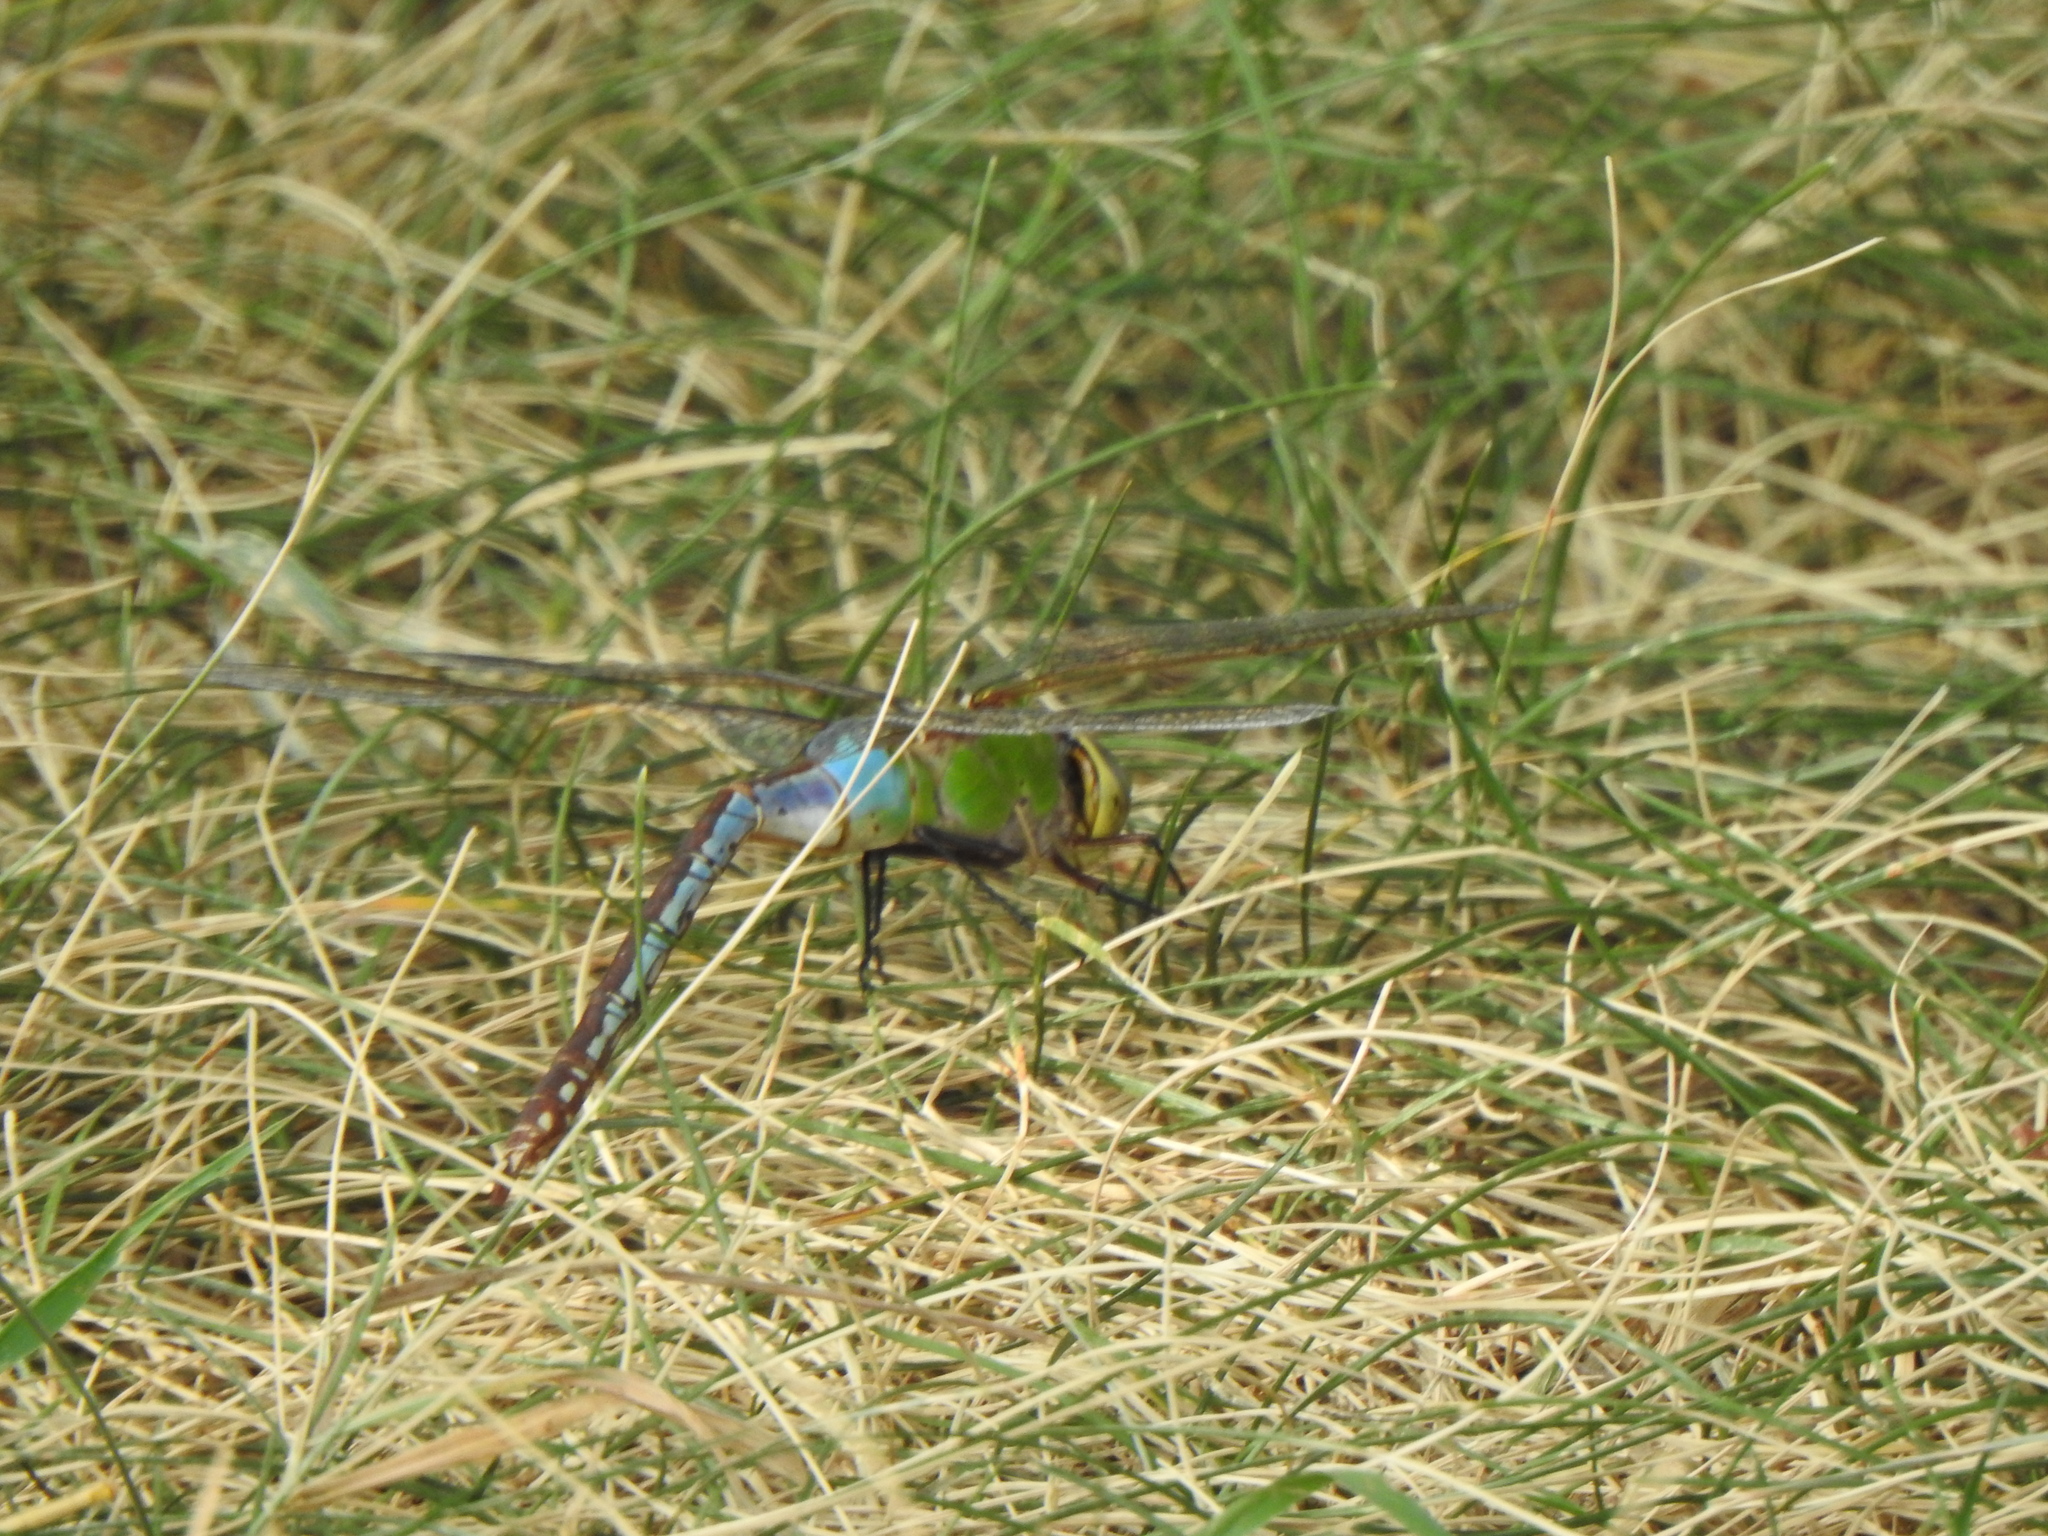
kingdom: Animalia
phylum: Arthropoda
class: Insecta
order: Odonata
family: Aeshnidae
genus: Anax
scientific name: Anax junius
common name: Common green darner
